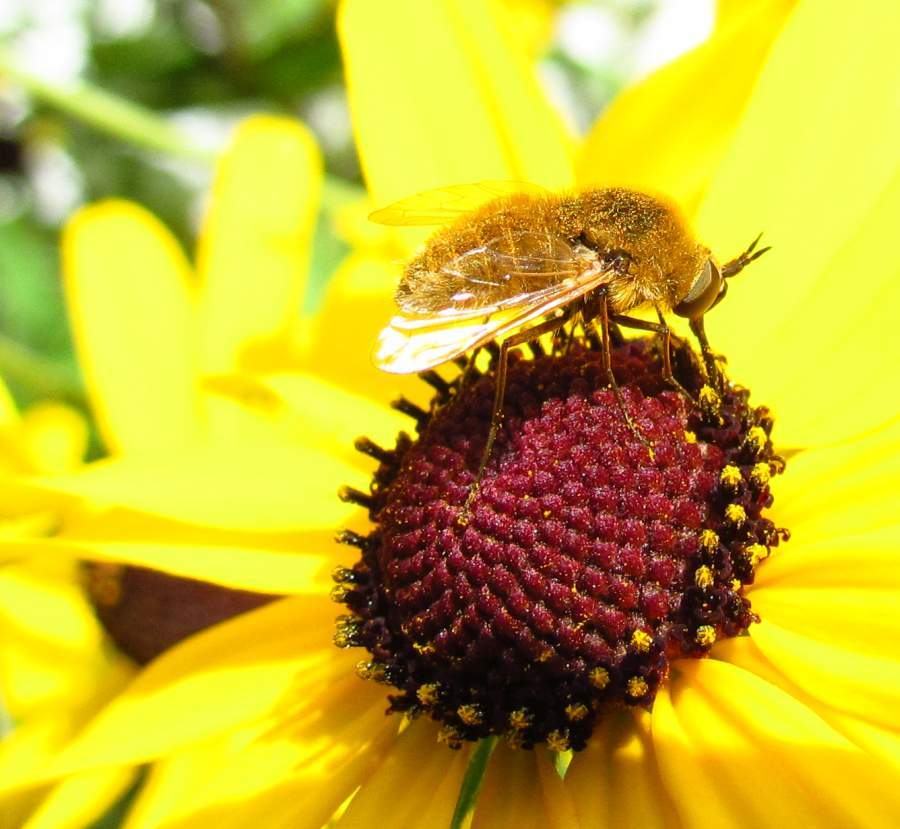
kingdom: Animalia
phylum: Arthropoda
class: Insecta
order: Diptera
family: Bombyliidae
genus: Sparnopolius
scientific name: Sparnopolius confusus
